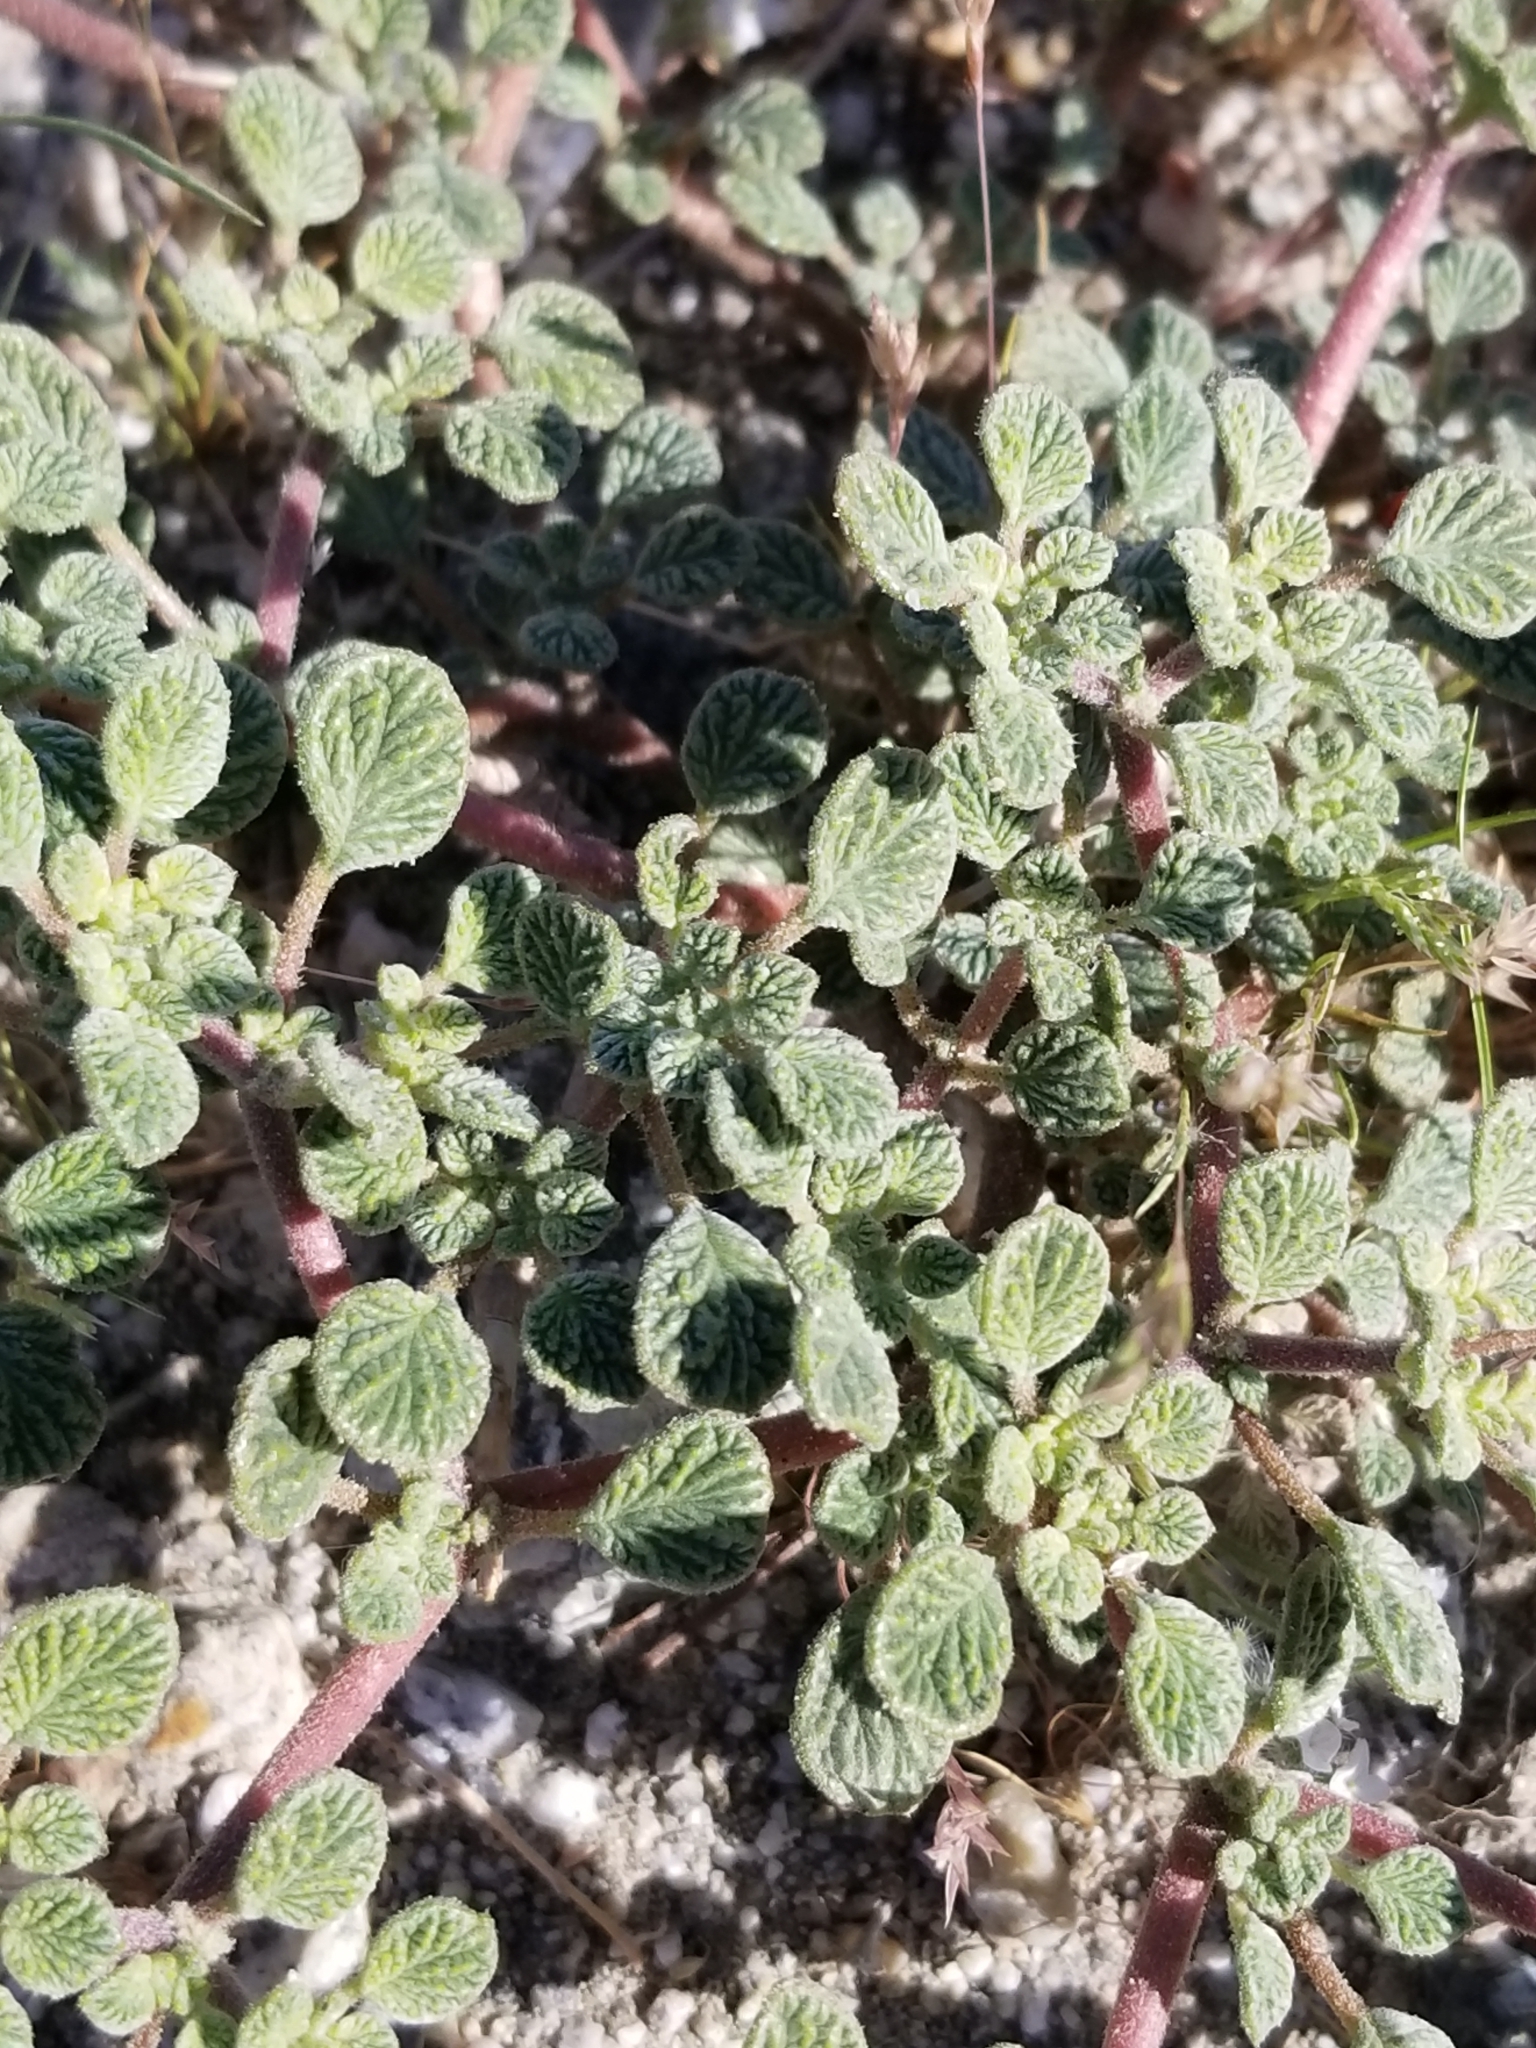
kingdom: Plantae
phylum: Tracheophyta
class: Magnoliopsida
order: Boraginales
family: Ehretiaceae
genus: Tiquilia
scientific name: Tiquilia plicata
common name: Fan-leaf tiquilia
